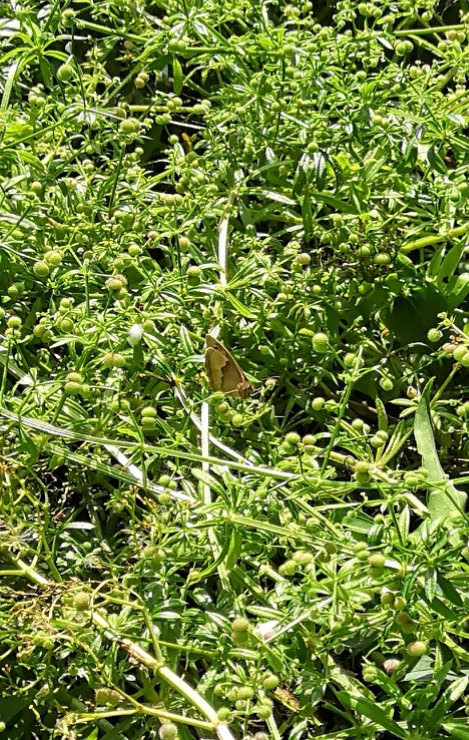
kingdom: Animalia
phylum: Arthropoda
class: Insecta
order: Lepidoptera
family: Nymphalidae
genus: Maniola
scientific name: Maniola jurtina
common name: Meadow brown
